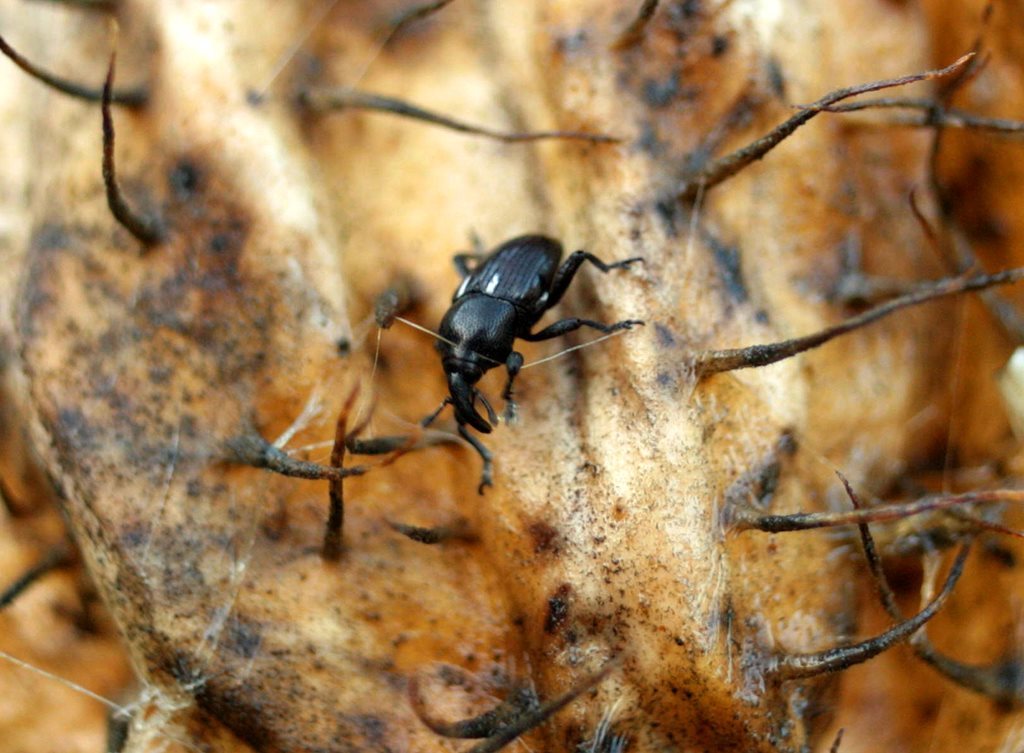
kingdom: Animalia
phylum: Arthropoda
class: Insecta
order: Coleoptera
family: Curculionidae
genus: Baris
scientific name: Baris tenuistriatipennis
